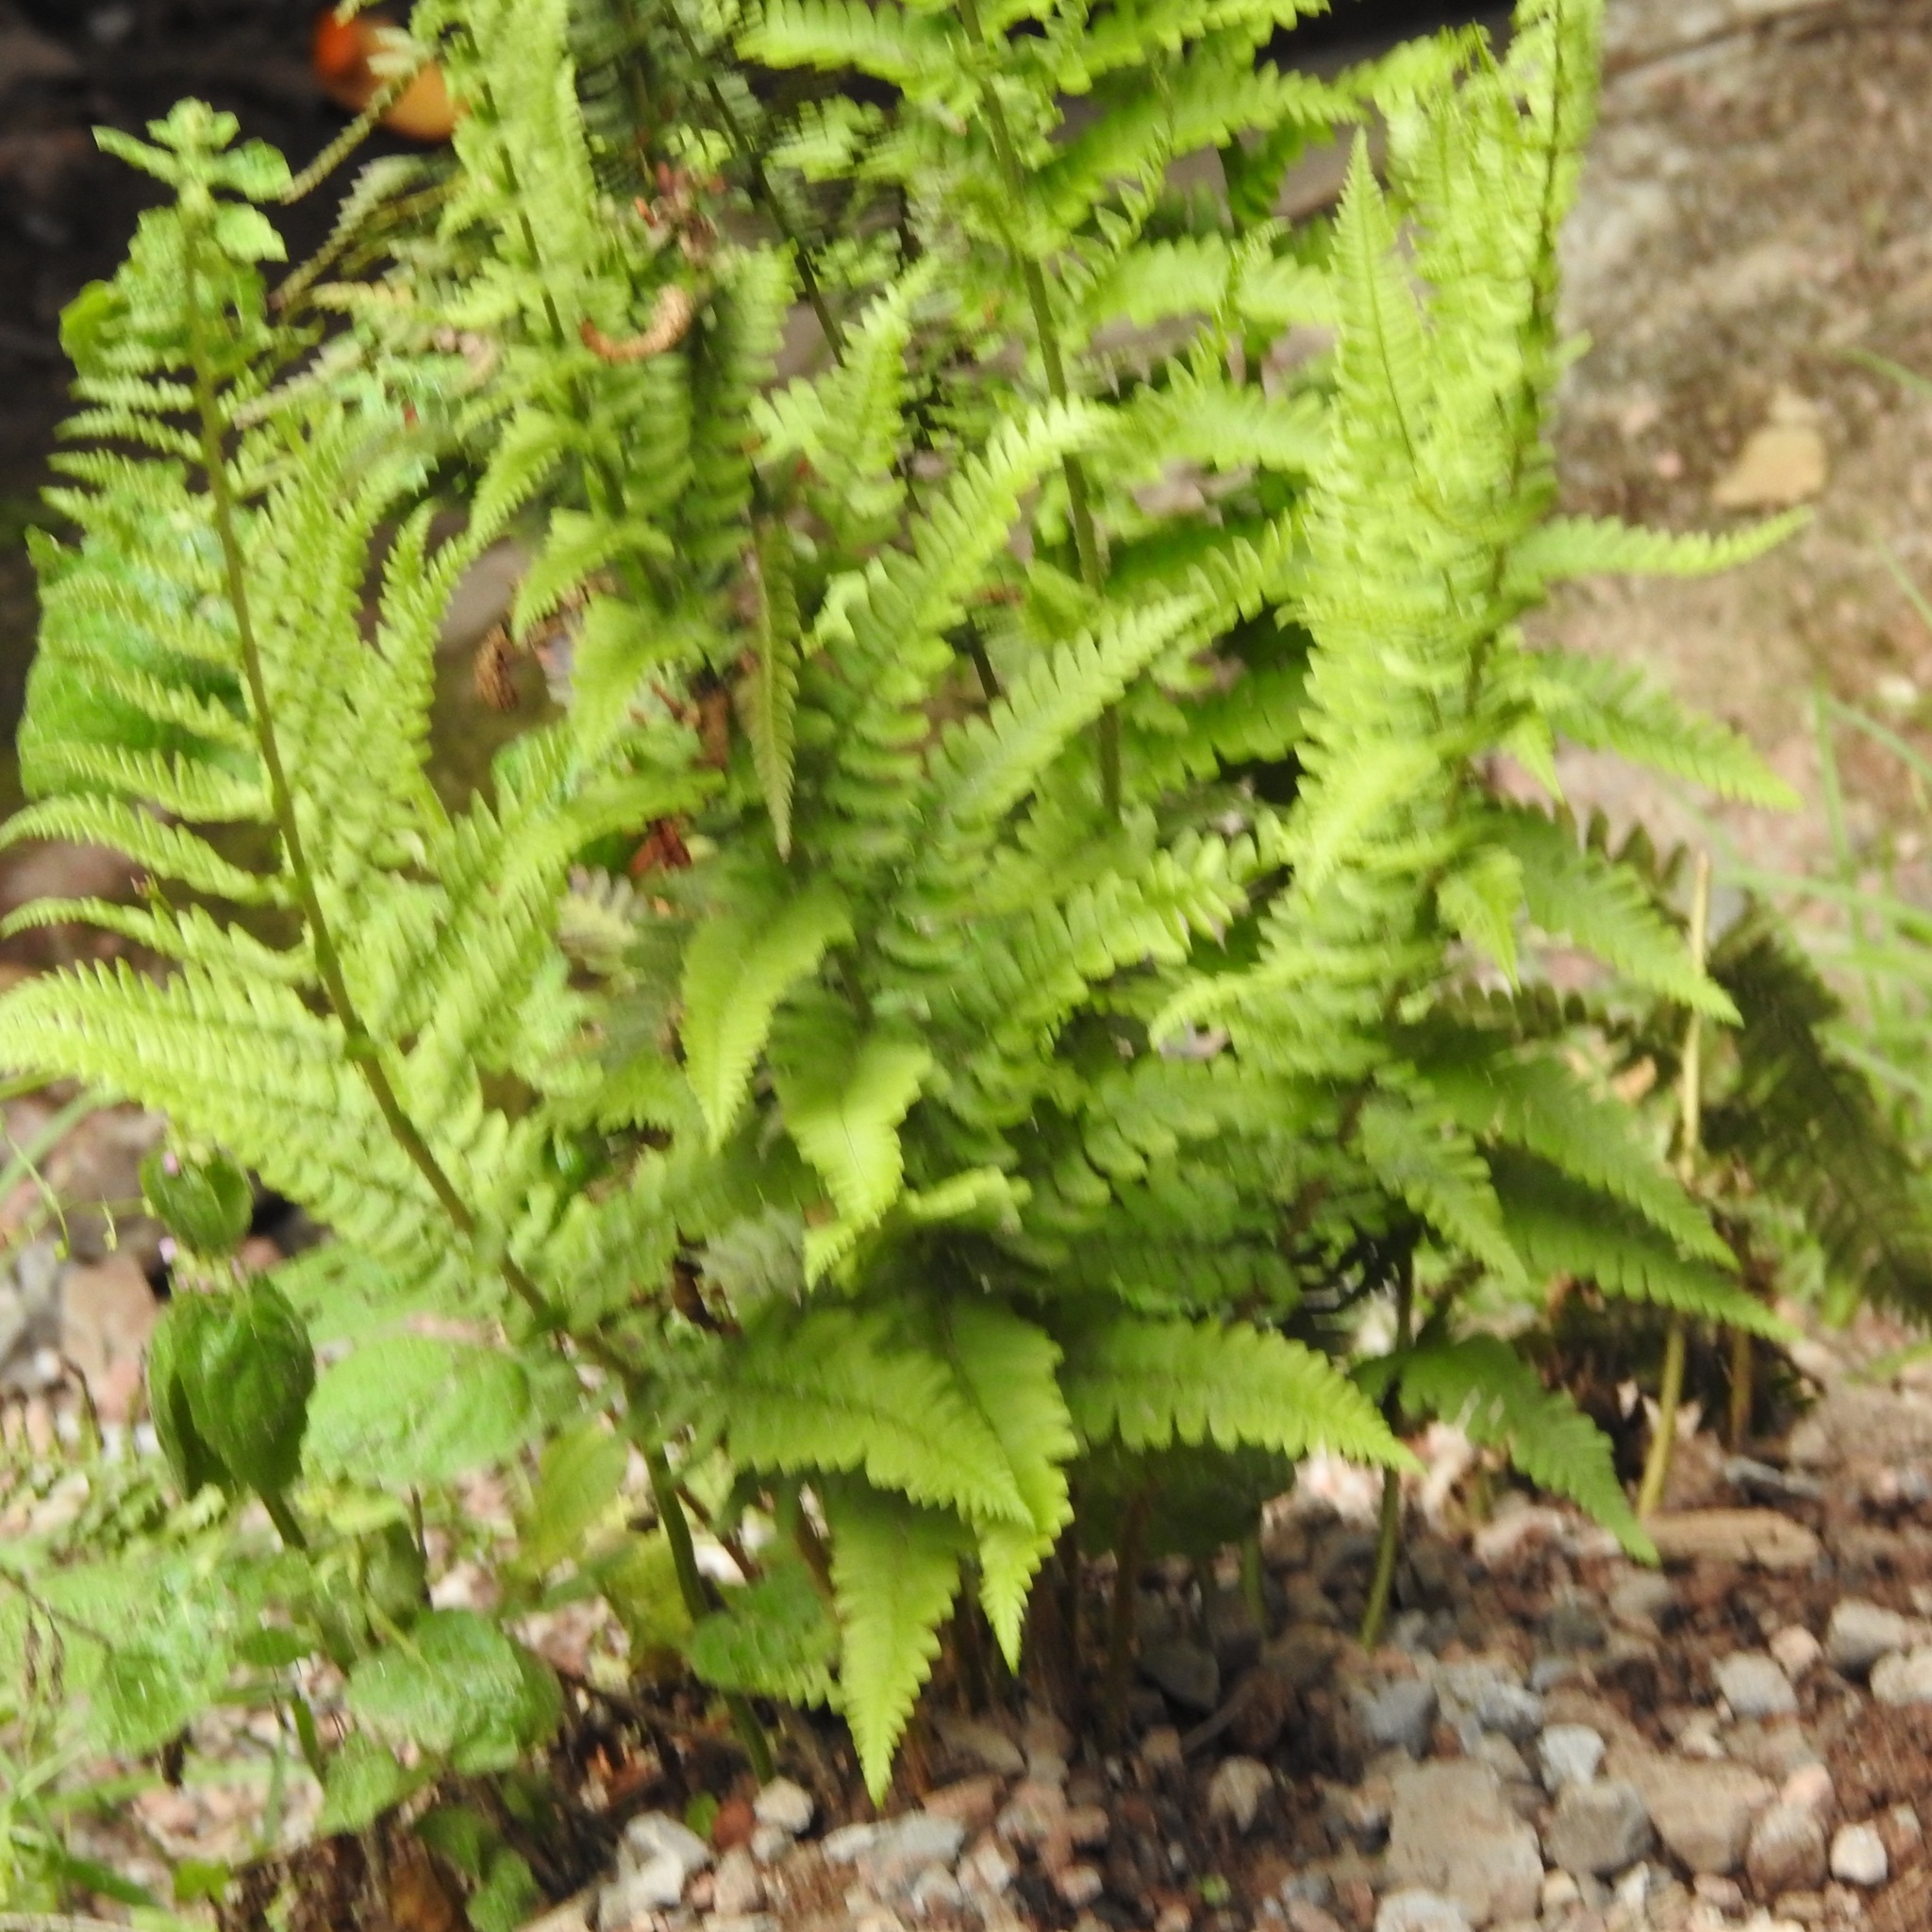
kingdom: Plantae
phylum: Tracheophyta
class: Polypodiopsida
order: Polypodiales
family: Dryopteridaceae
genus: Dryopteris
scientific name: Dryopteris arguta
